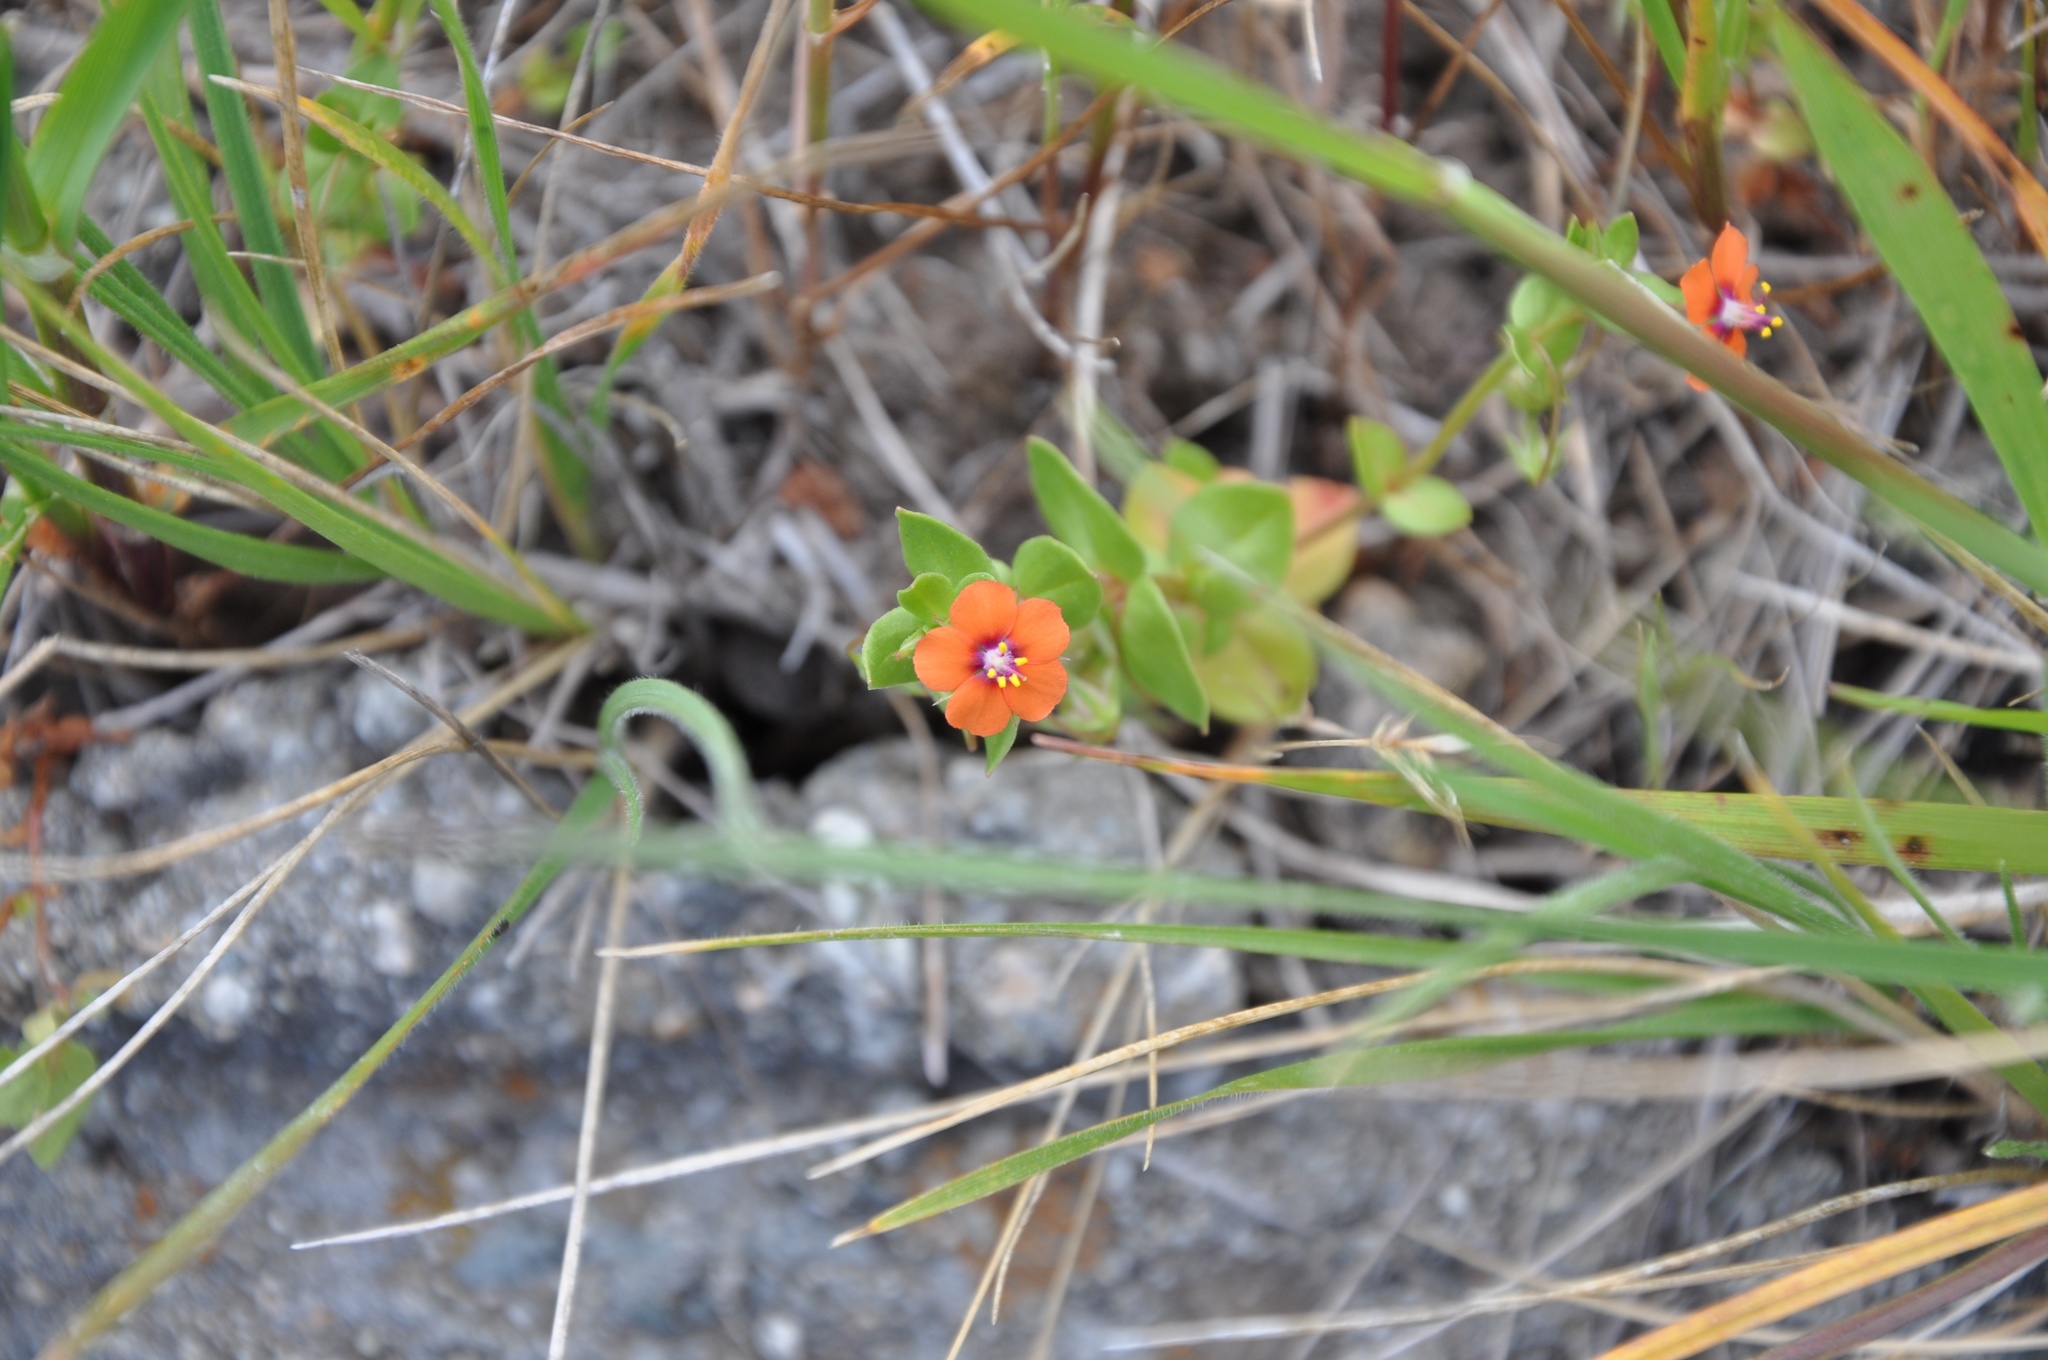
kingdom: Plantae
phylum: Tracheophyta
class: Magnoliopsida
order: Ericales
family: Primulaceae
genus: Lysimachia
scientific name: Lysimachia arvensis
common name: Scarlet pimpernel
